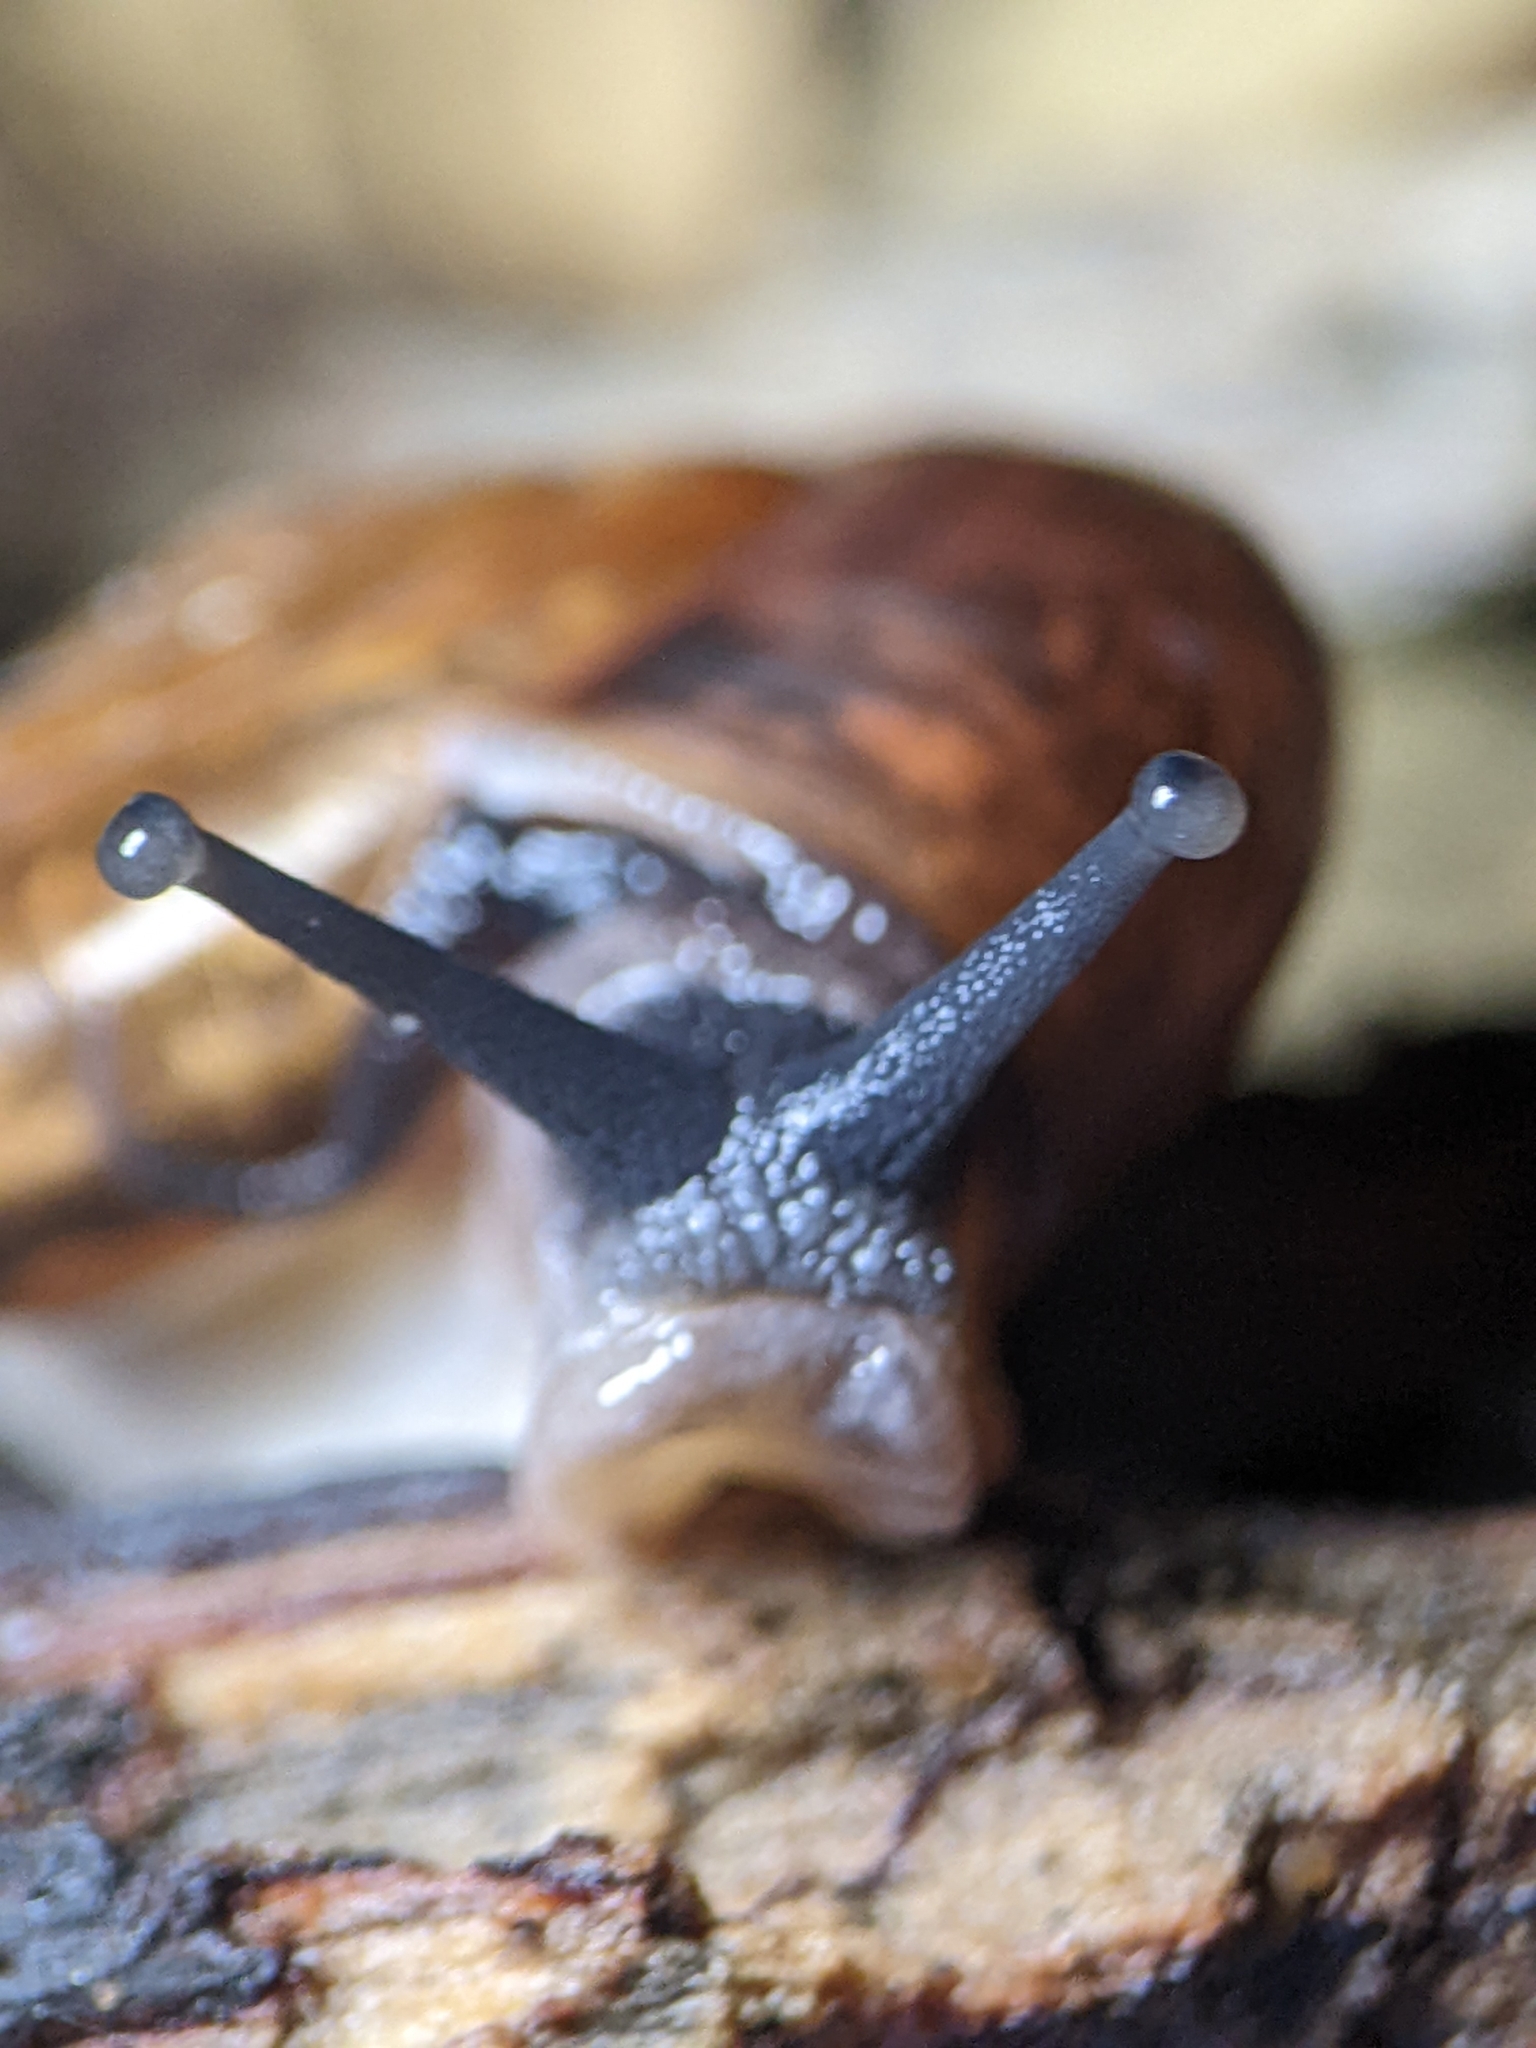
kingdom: Animalia
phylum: Mollusca
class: Gastropoda
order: Stylommatophora
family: Ariophantidae
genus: Sarika
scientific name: Sarika resplendens
